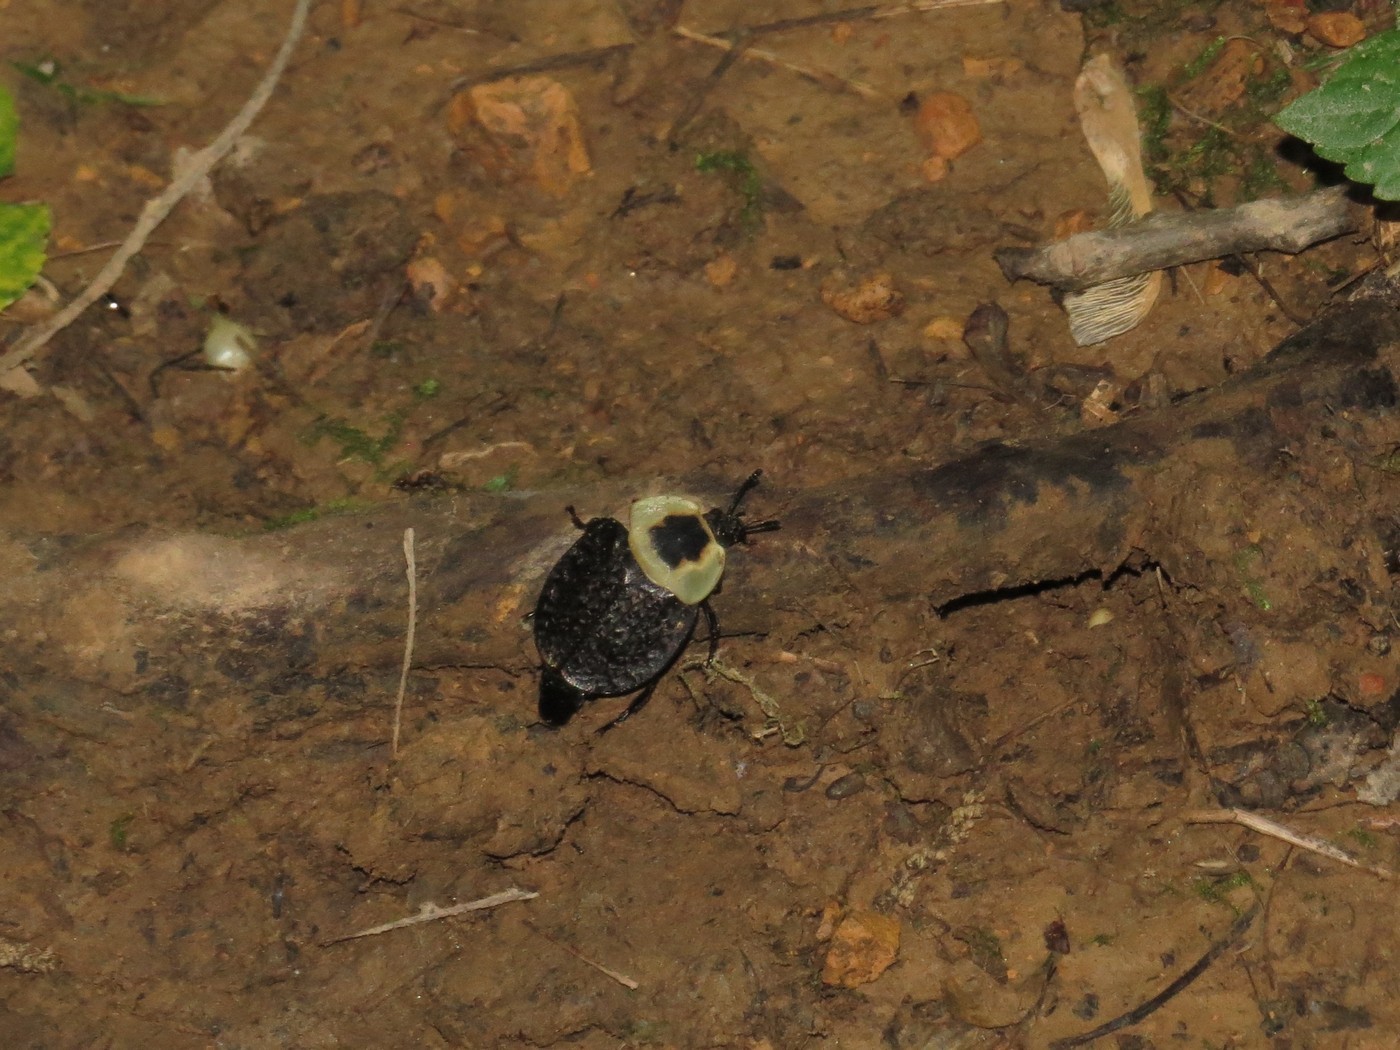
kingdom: Animalia
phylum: Arthropoda
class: Insecta
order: Coleoptera
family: Staphylinidae
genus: Necrophila
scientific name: Necrophila americana
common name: American carrion beetle
